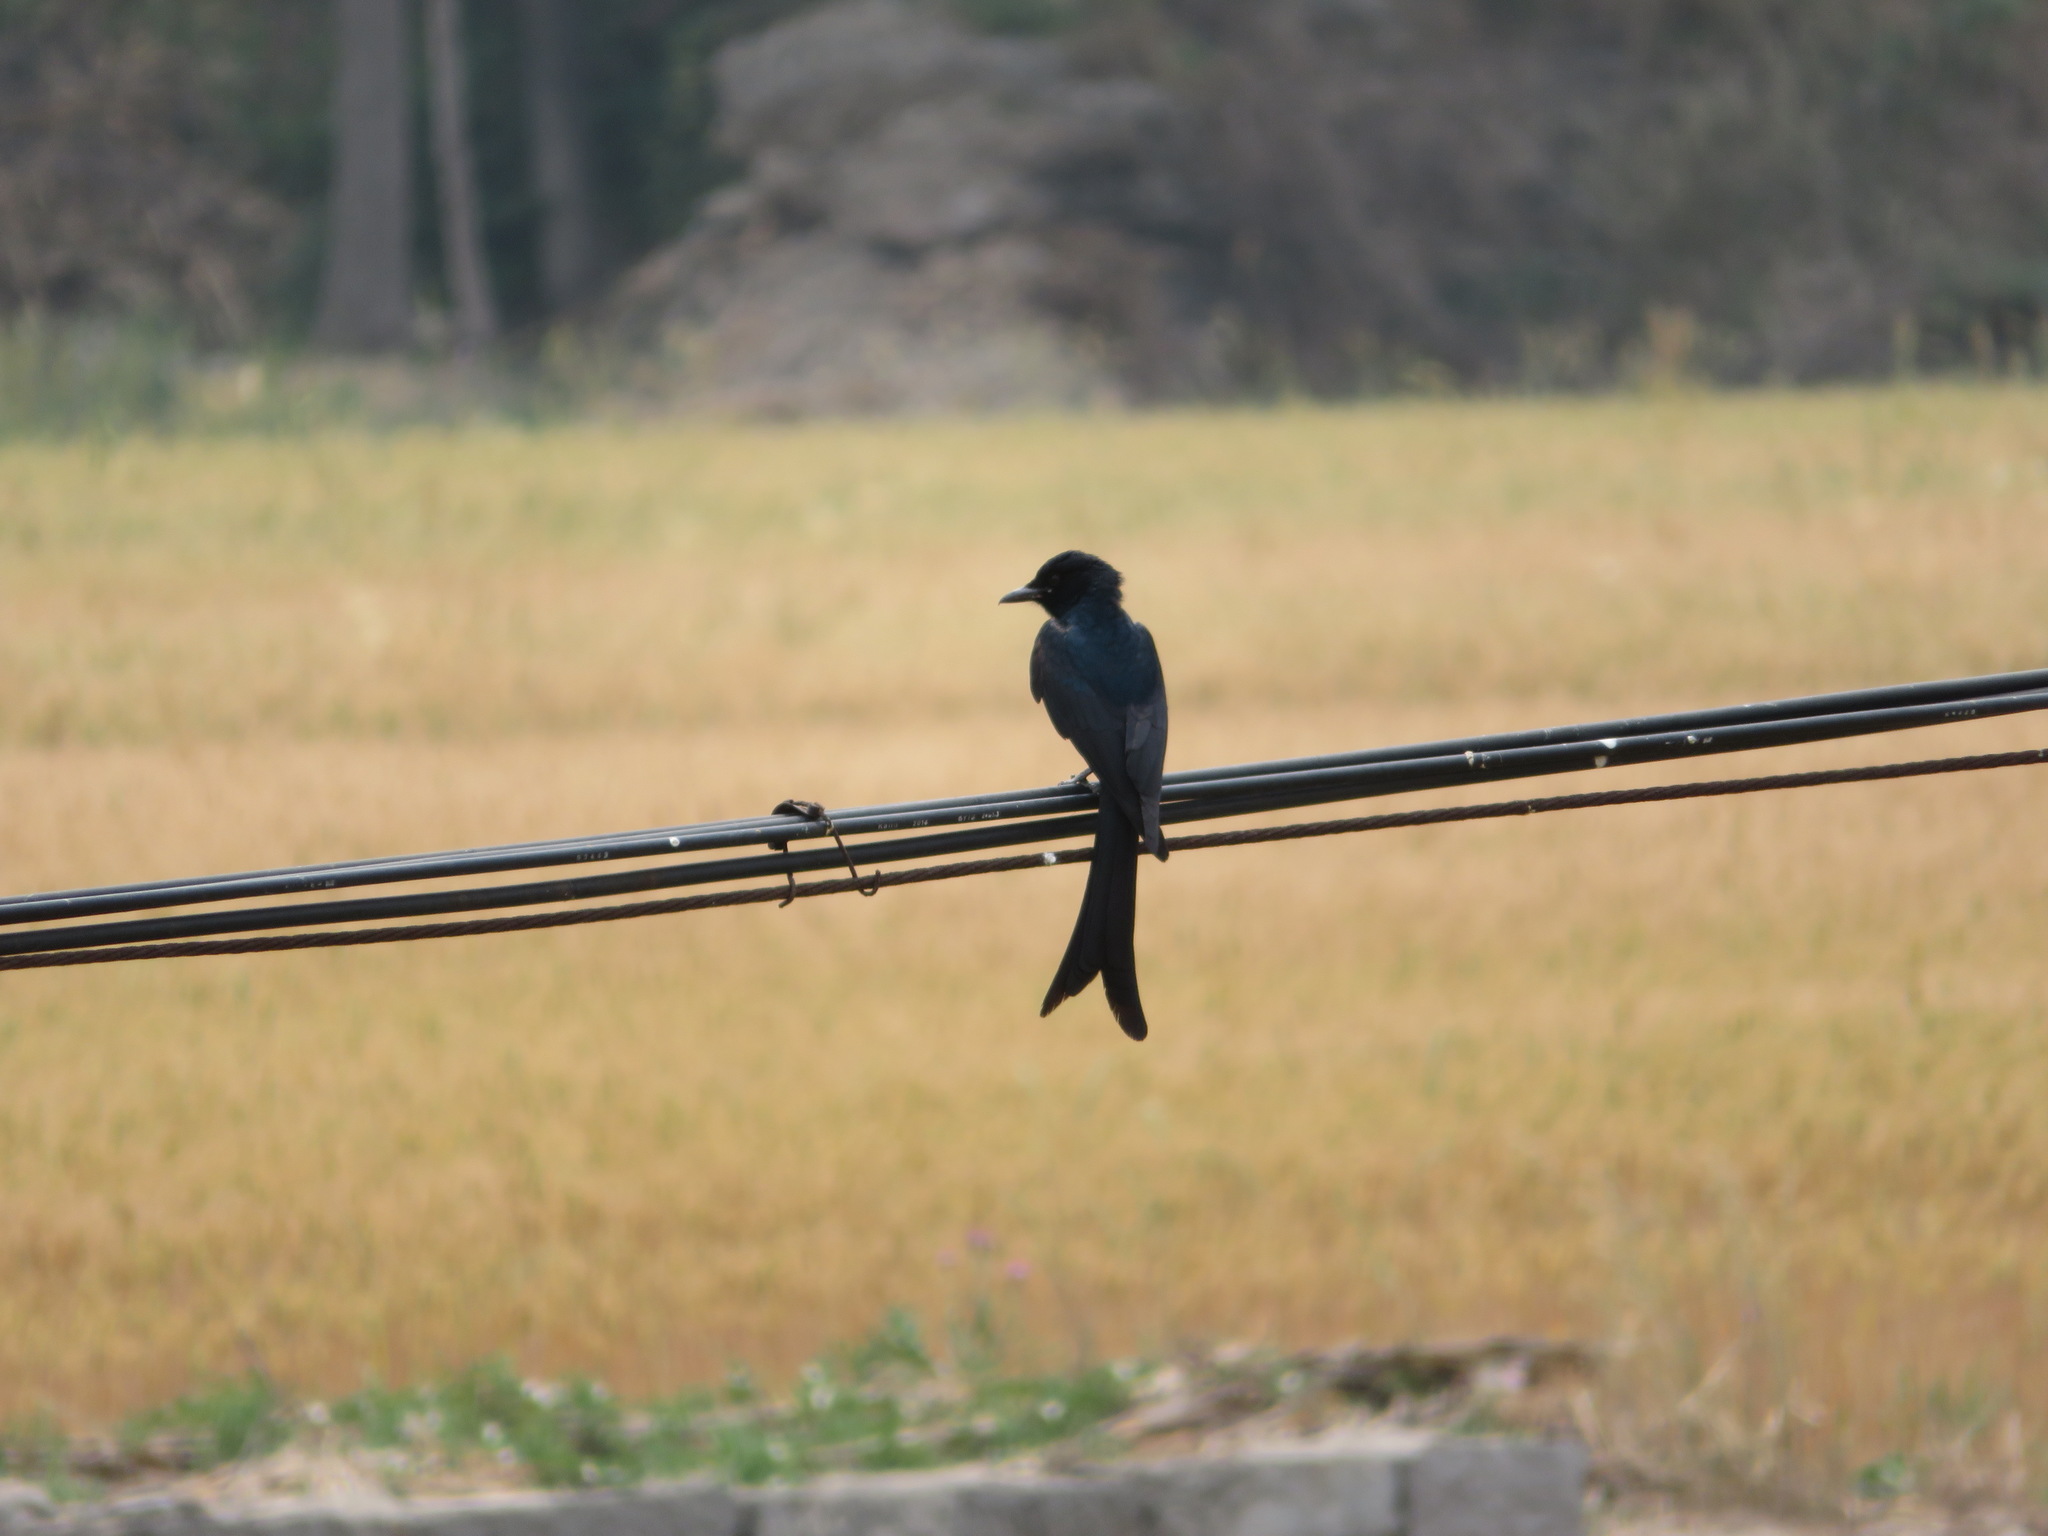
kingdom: Animalia
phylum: Chordata
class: Aves
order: Passeriformes
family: Dicruridae
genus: Dicrurus
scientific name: Dicrurus macrocercus
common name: Black drongo
